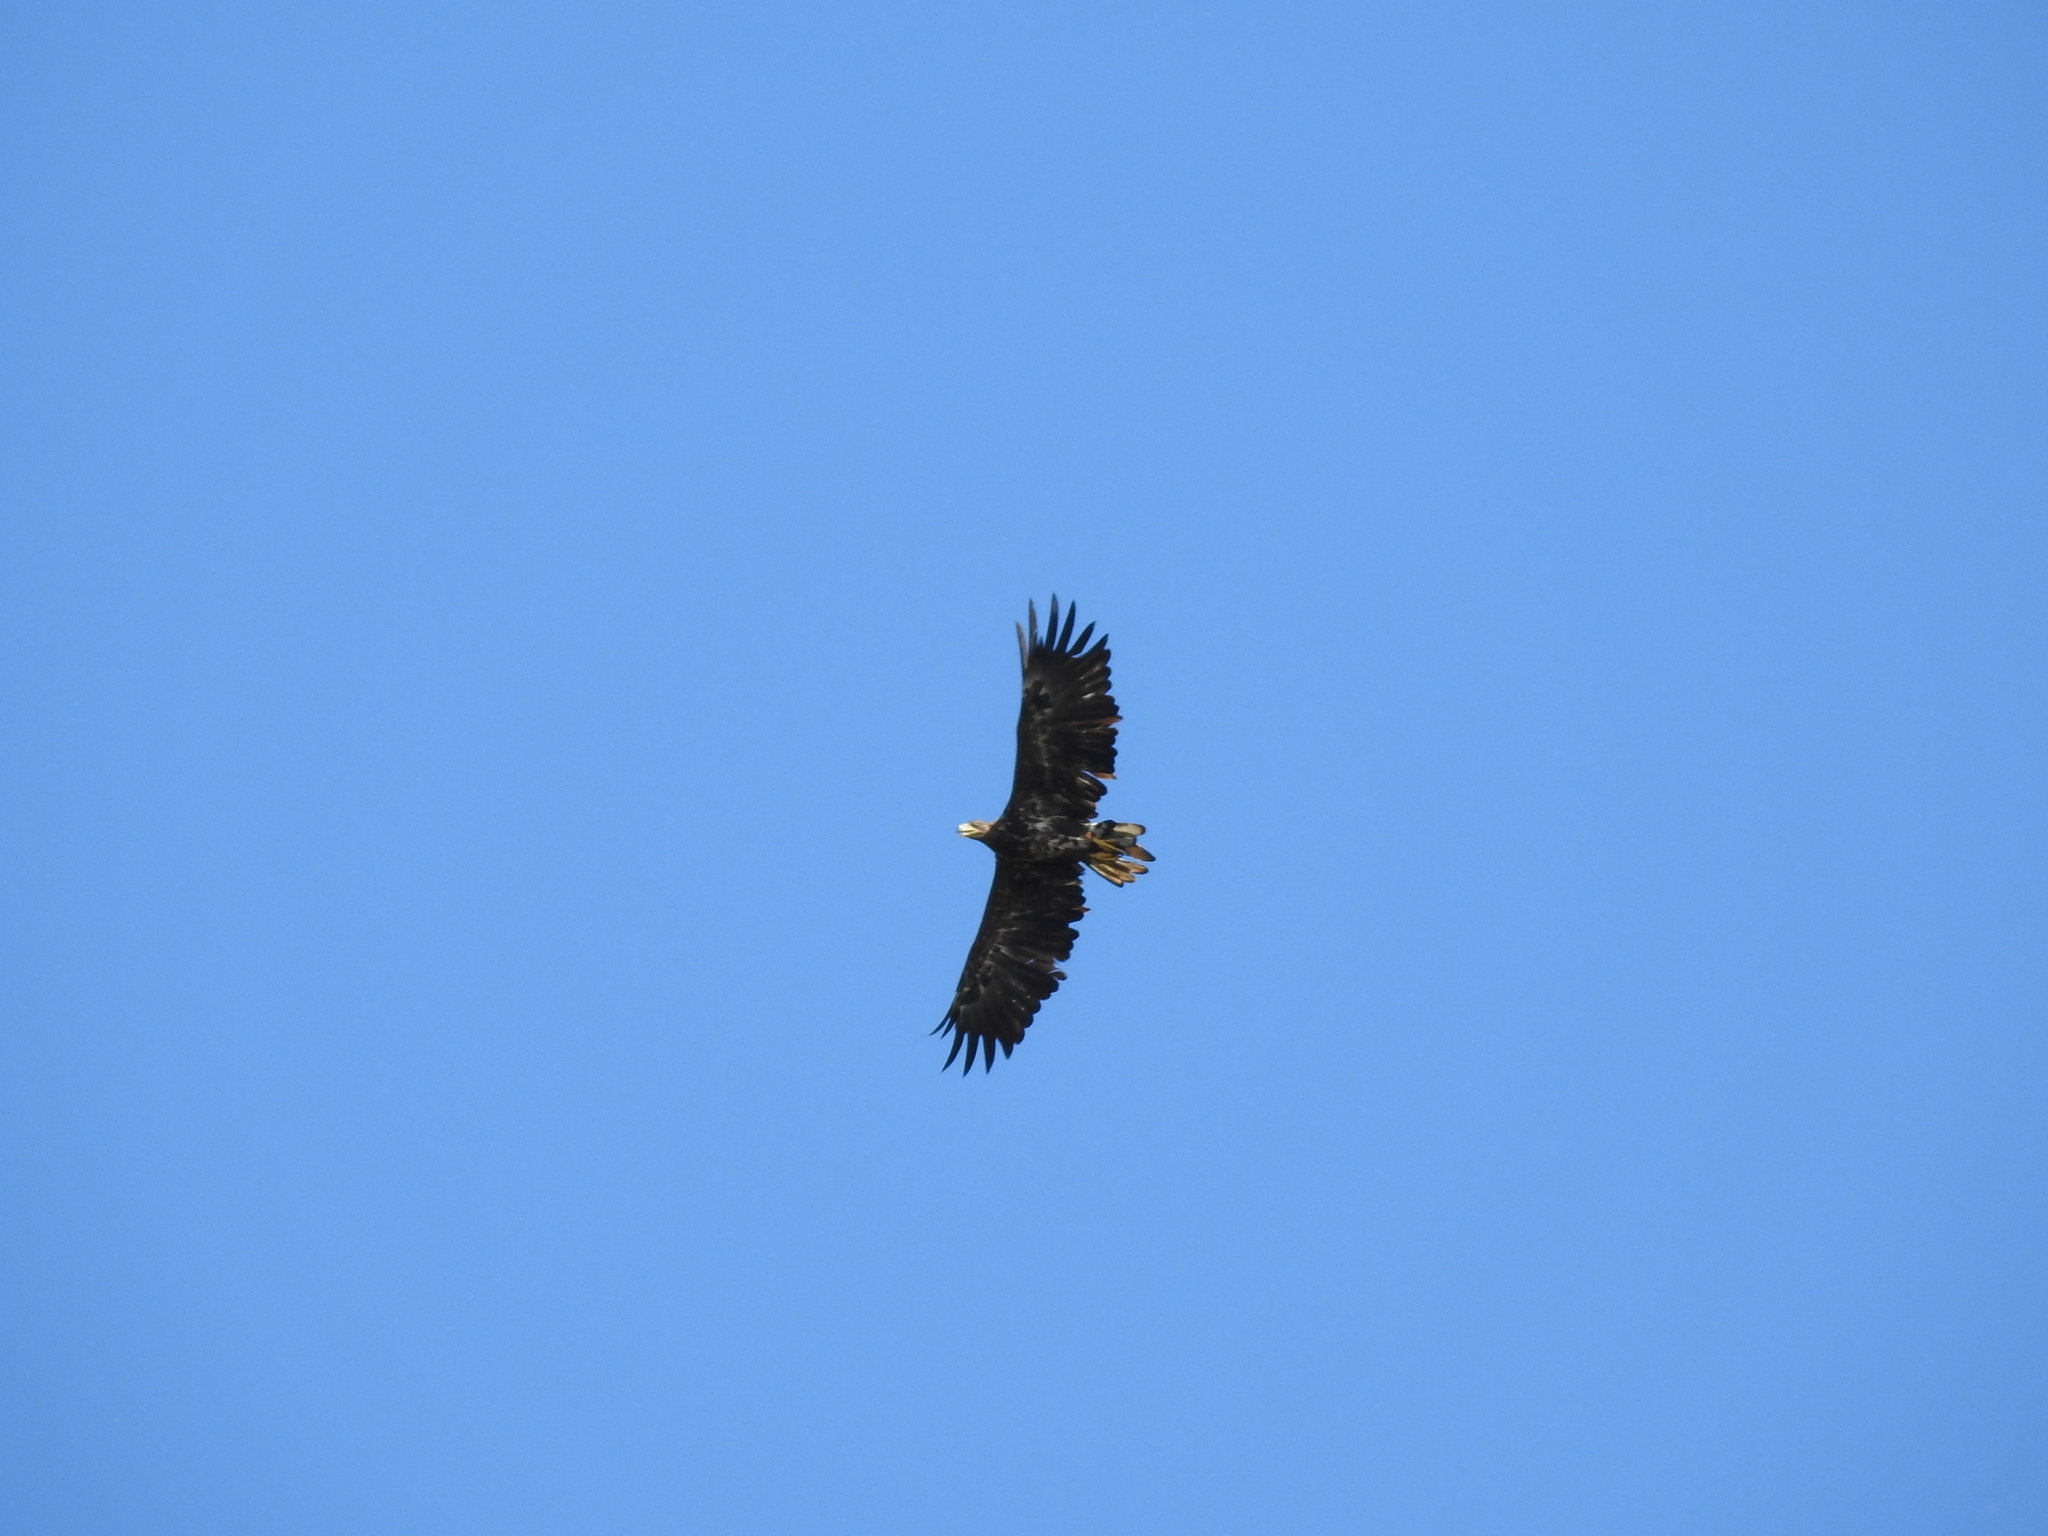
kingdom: Animalia
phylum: Chordata
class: Aves
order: Accipitriformes
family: Accipitridae
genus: Haliaeetus
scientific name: Haliaeetus albicilla
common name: White-tailed eagle
